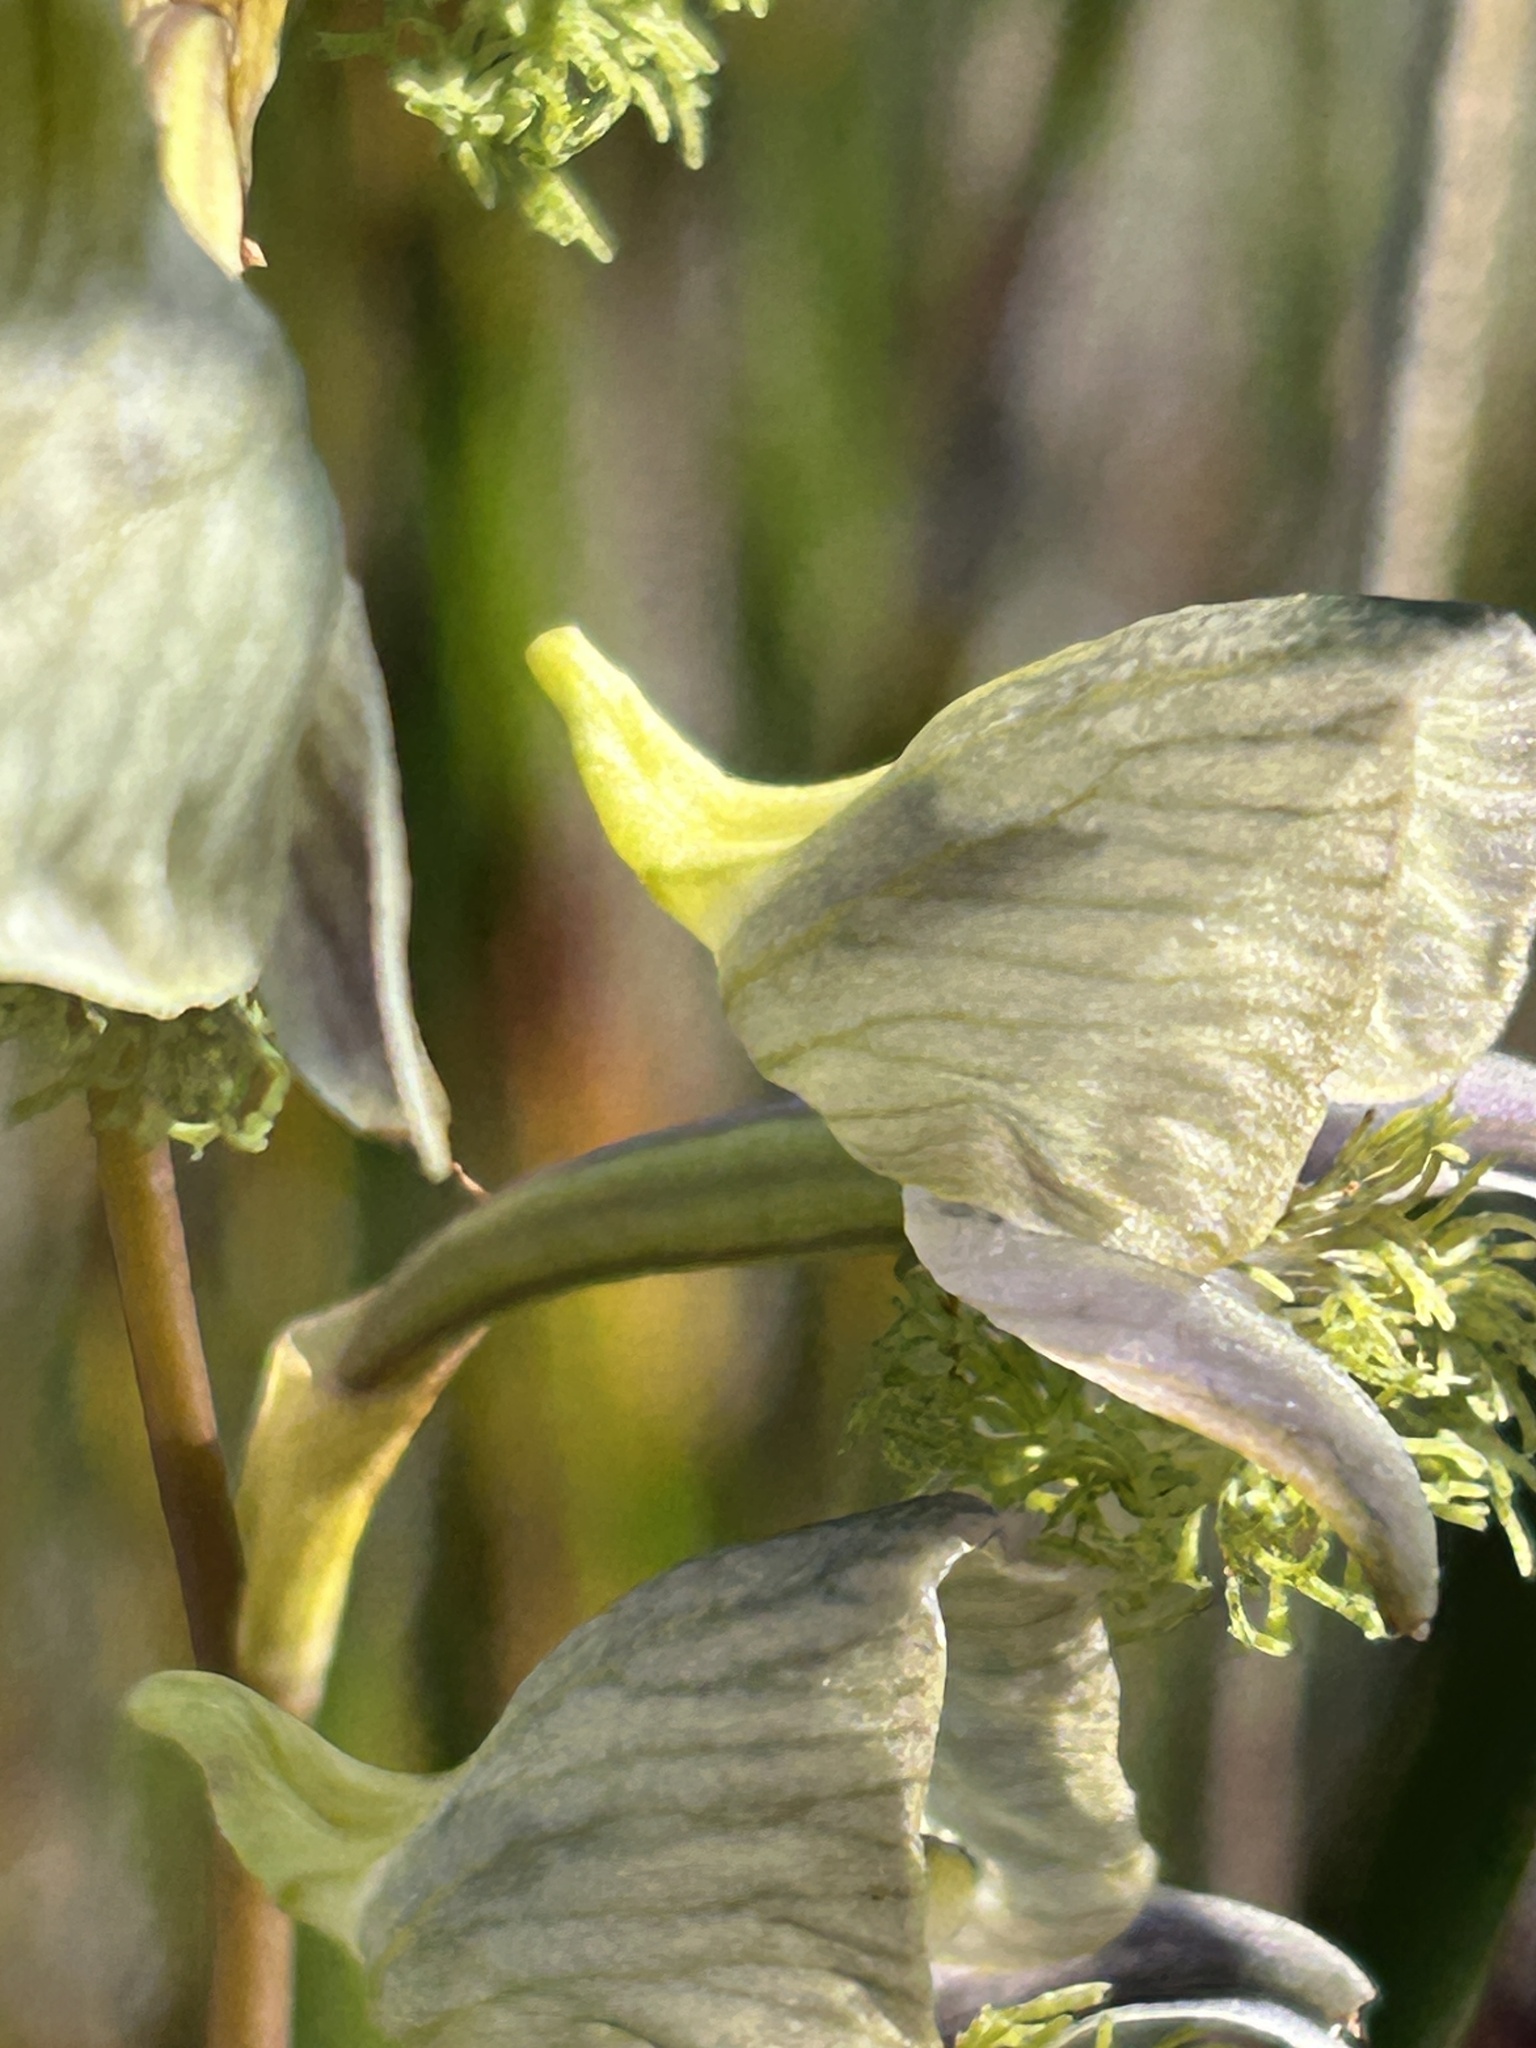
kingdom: Plantae
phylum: Tracheophyta
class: Liliopsida
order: Asparagales
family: Orchidaceae
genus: Disa
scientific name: Disa lugens
